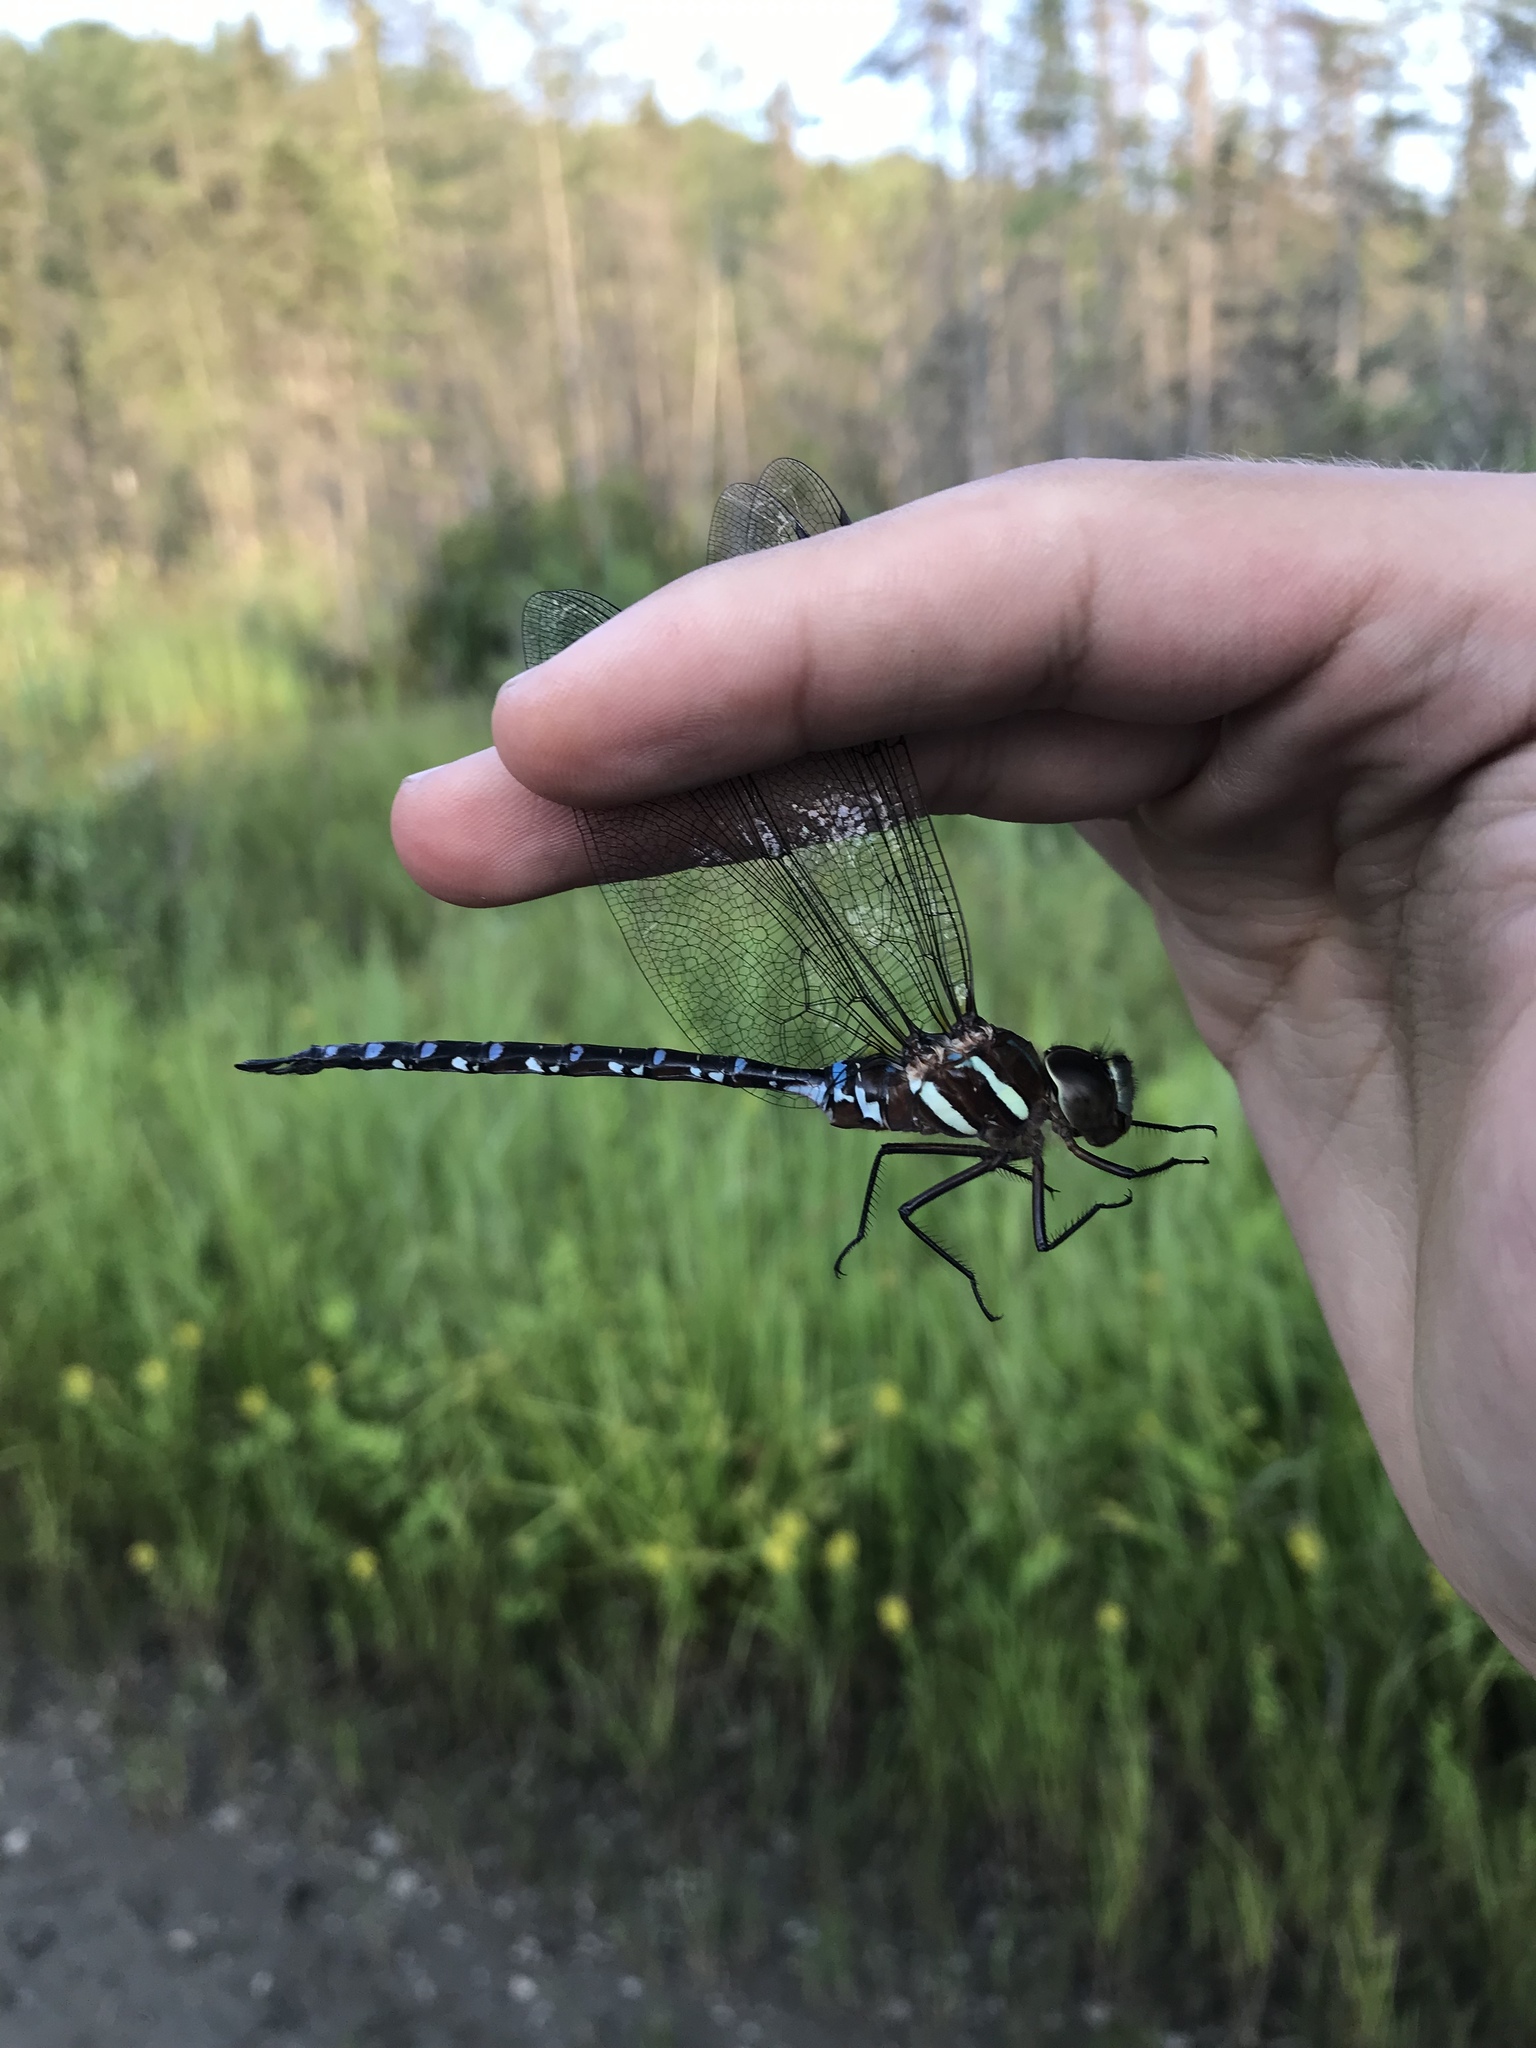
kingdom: Animalia
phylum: Arthropoda
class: Insecta
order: Odonata
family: Aeshnidae
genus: Aeshna
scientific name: Aeshna tuberculifera
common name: Aeschne à tubercules
